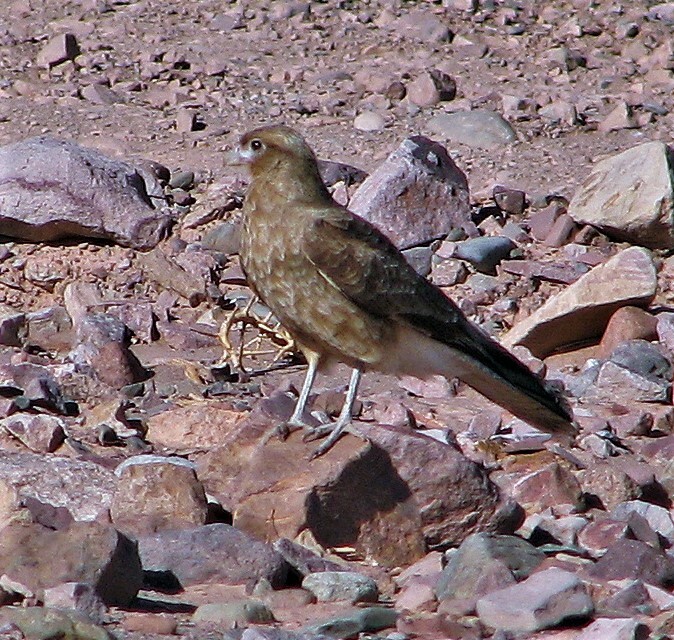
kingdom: Animalia
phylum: Chordata
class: Aves
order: Falconiformes
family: Falconidae
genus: Daptrius
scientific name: Daptrius
